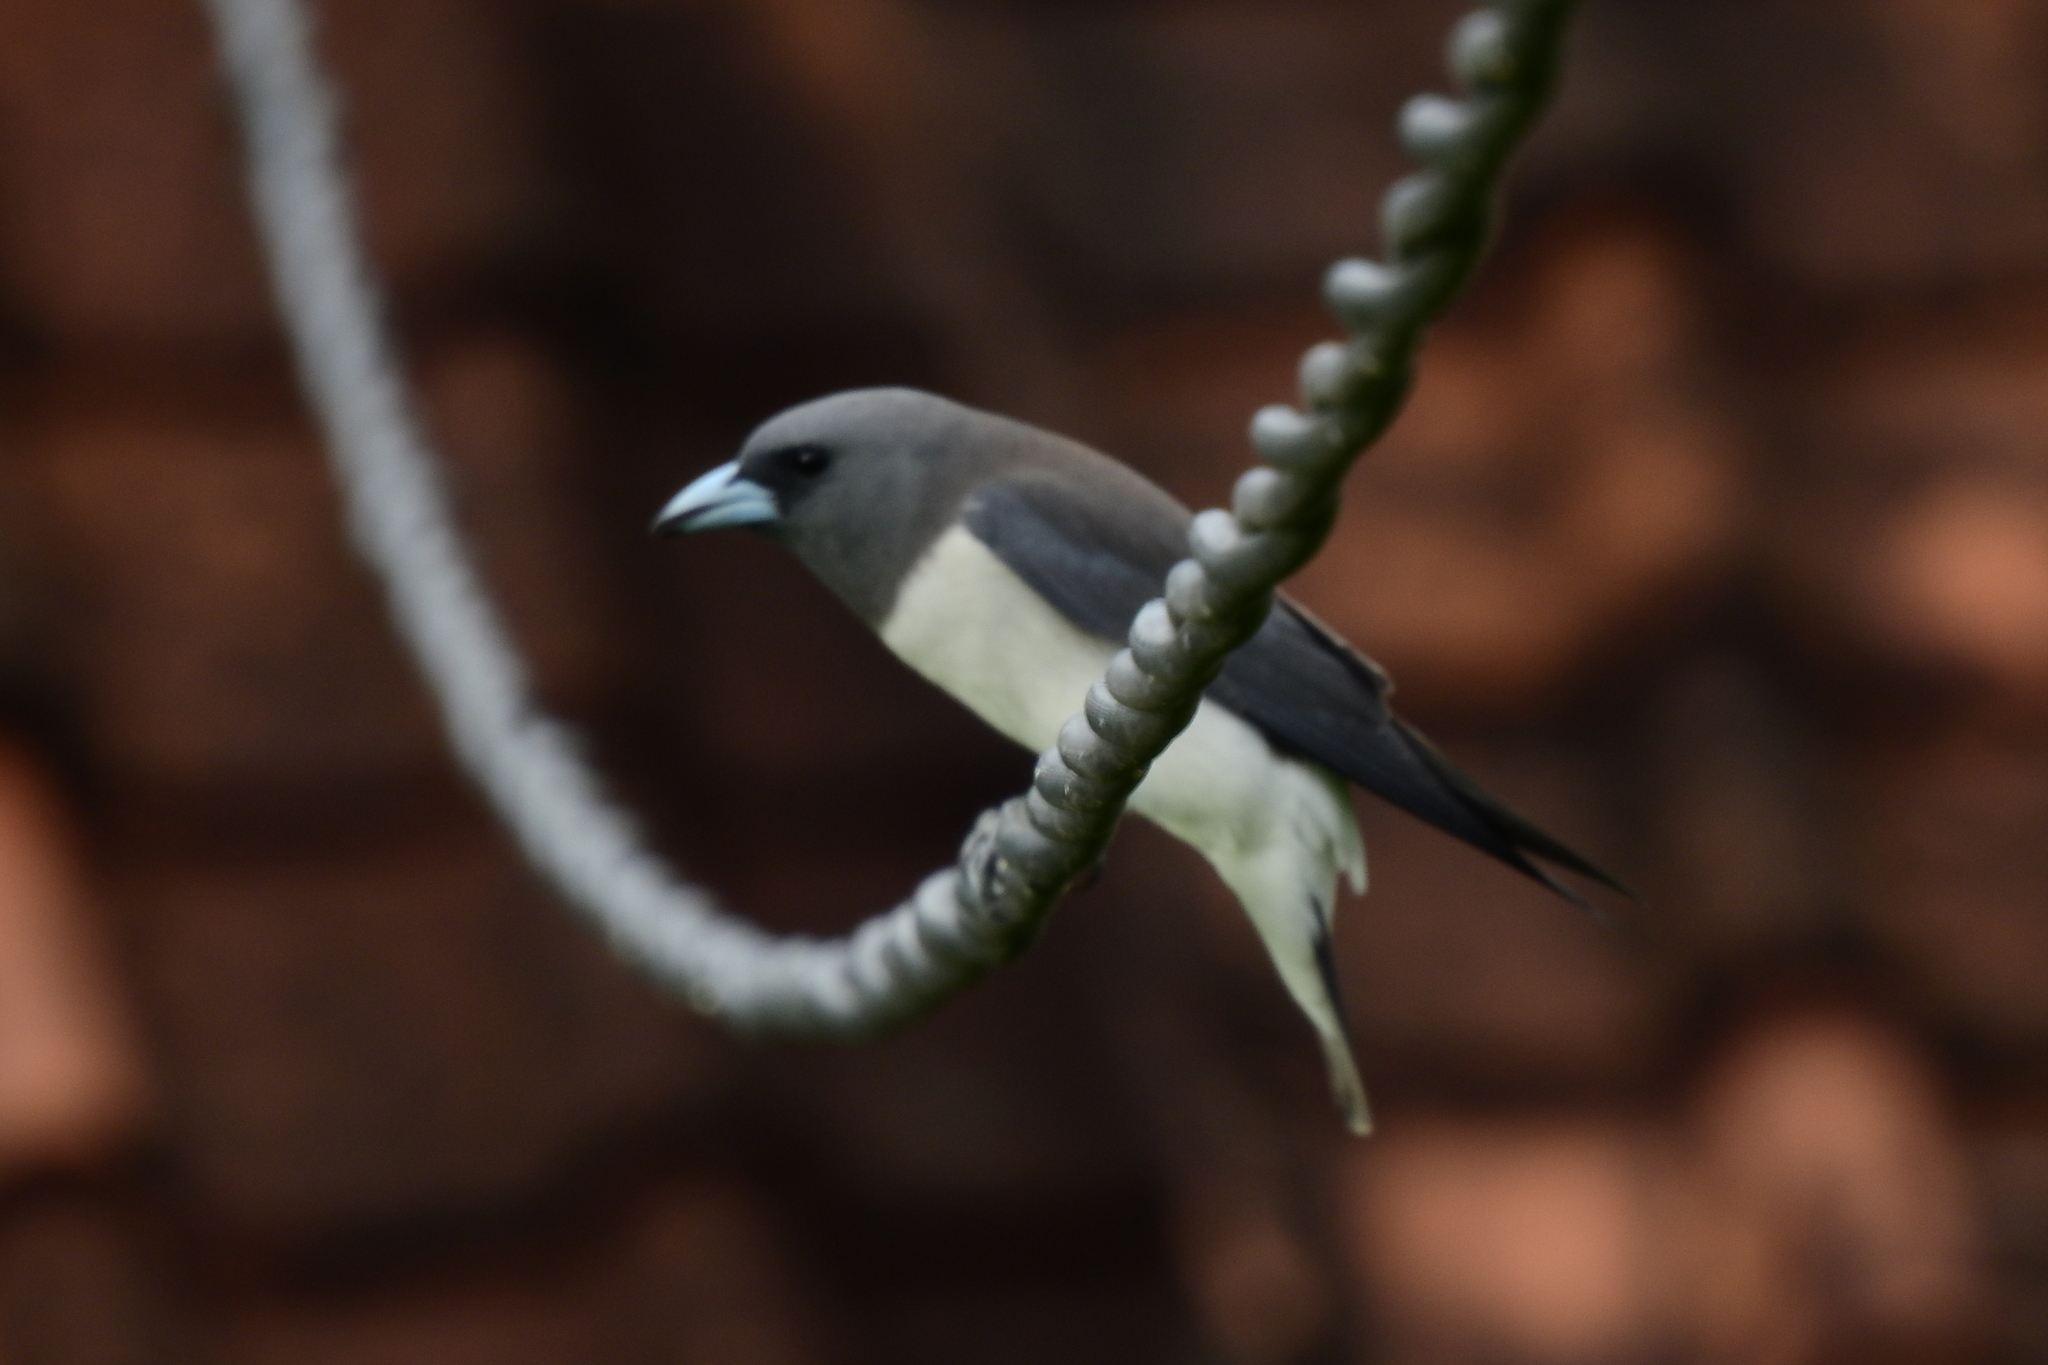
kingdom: Animalia
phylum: Chordata
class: Aves
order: Passeriformes
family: Artamidae
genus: Artamus
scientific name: Artamus leucoryn
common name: White-breasted woodswallow
